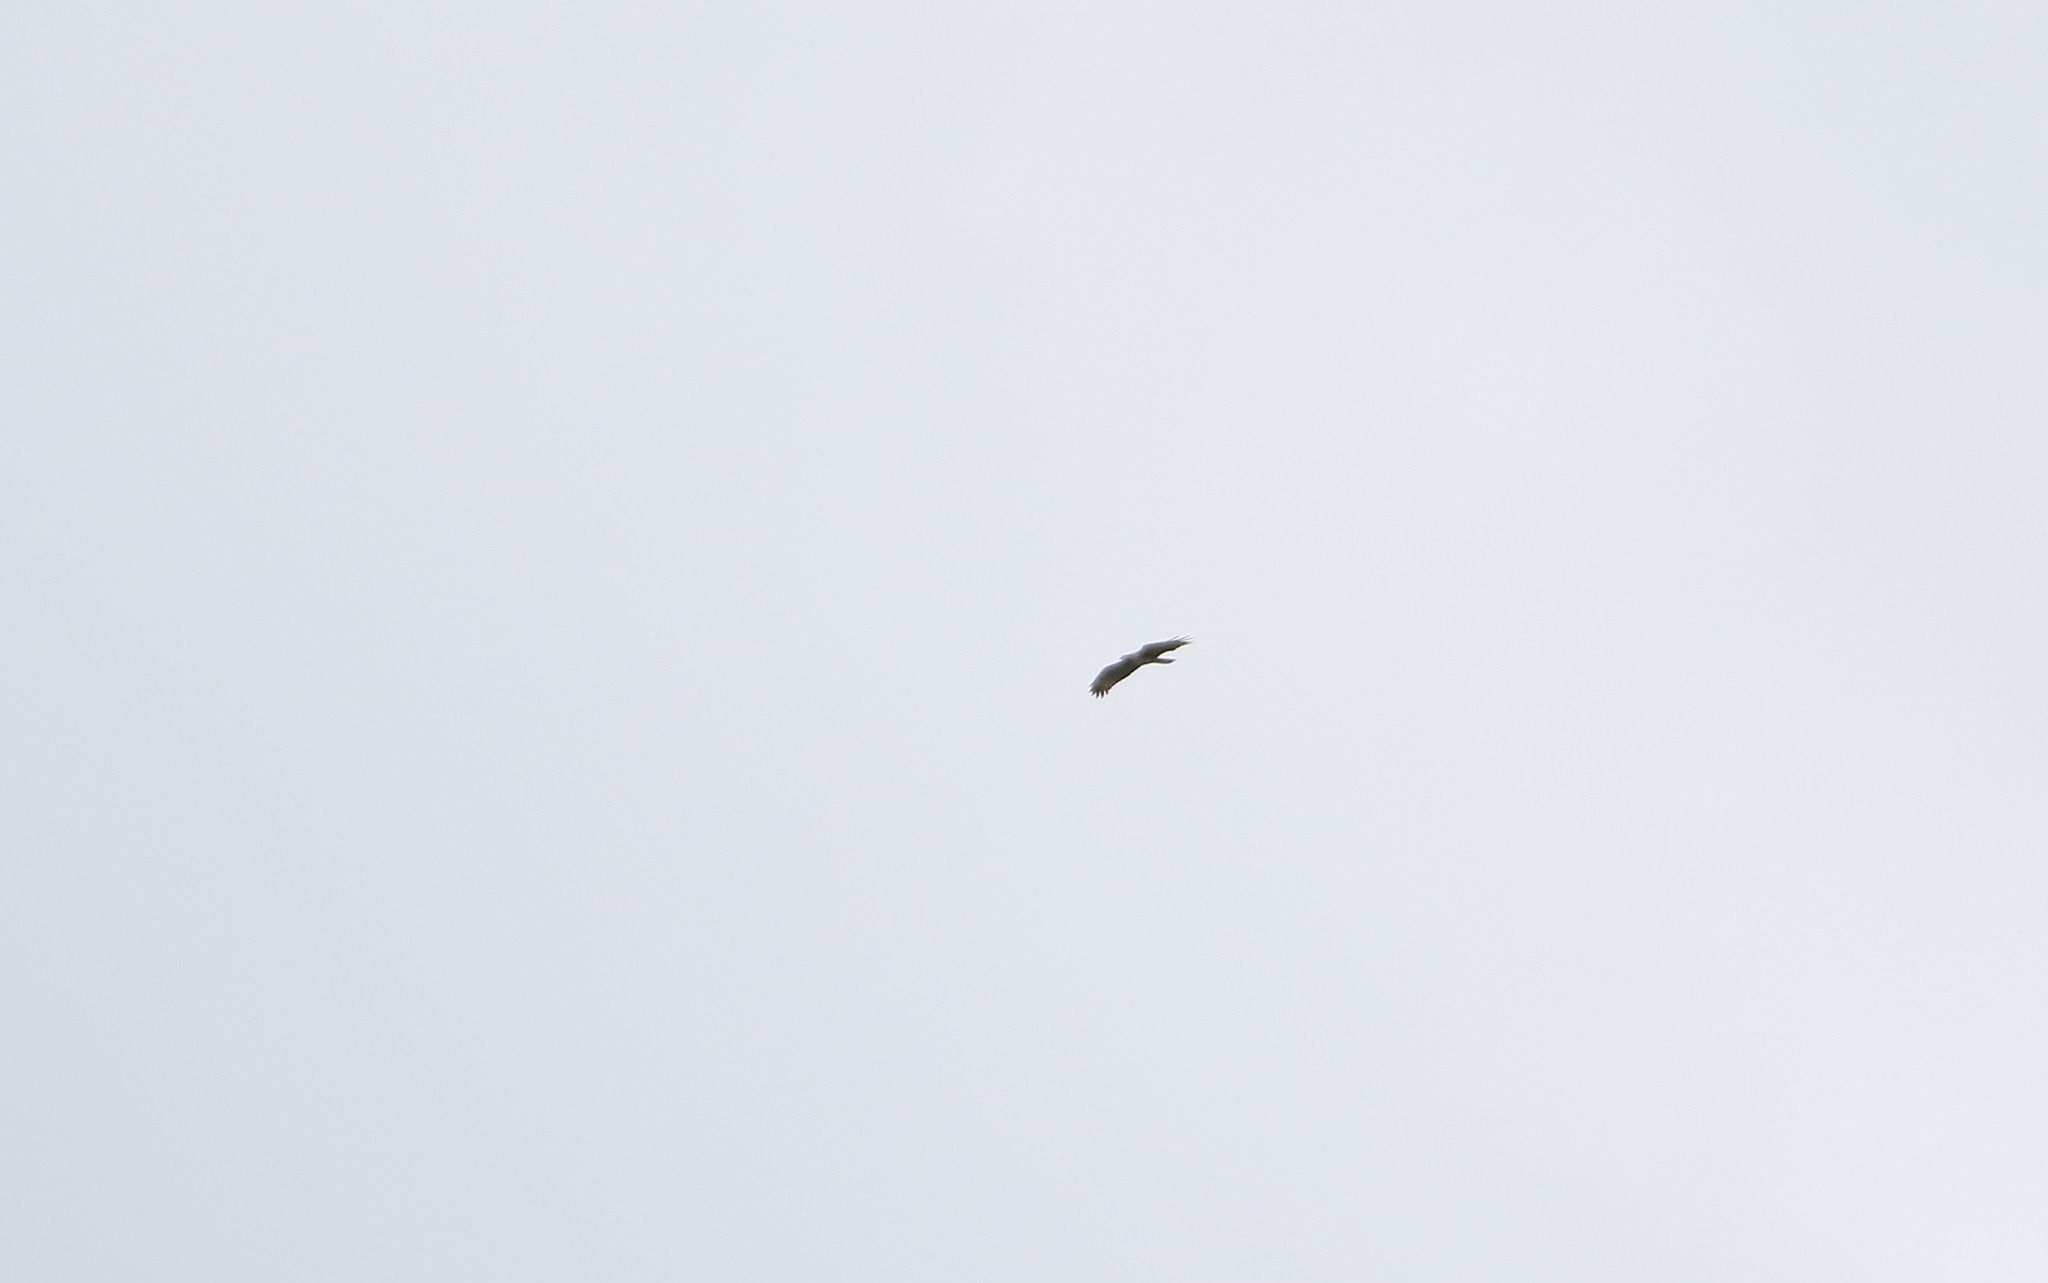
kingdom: Animalia
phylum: Chordata
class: Aves
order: Accipitriformes
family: Accipitridae
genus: Pernis
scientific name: Pernis ptilorhynchus
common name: Crested honey buzzard
